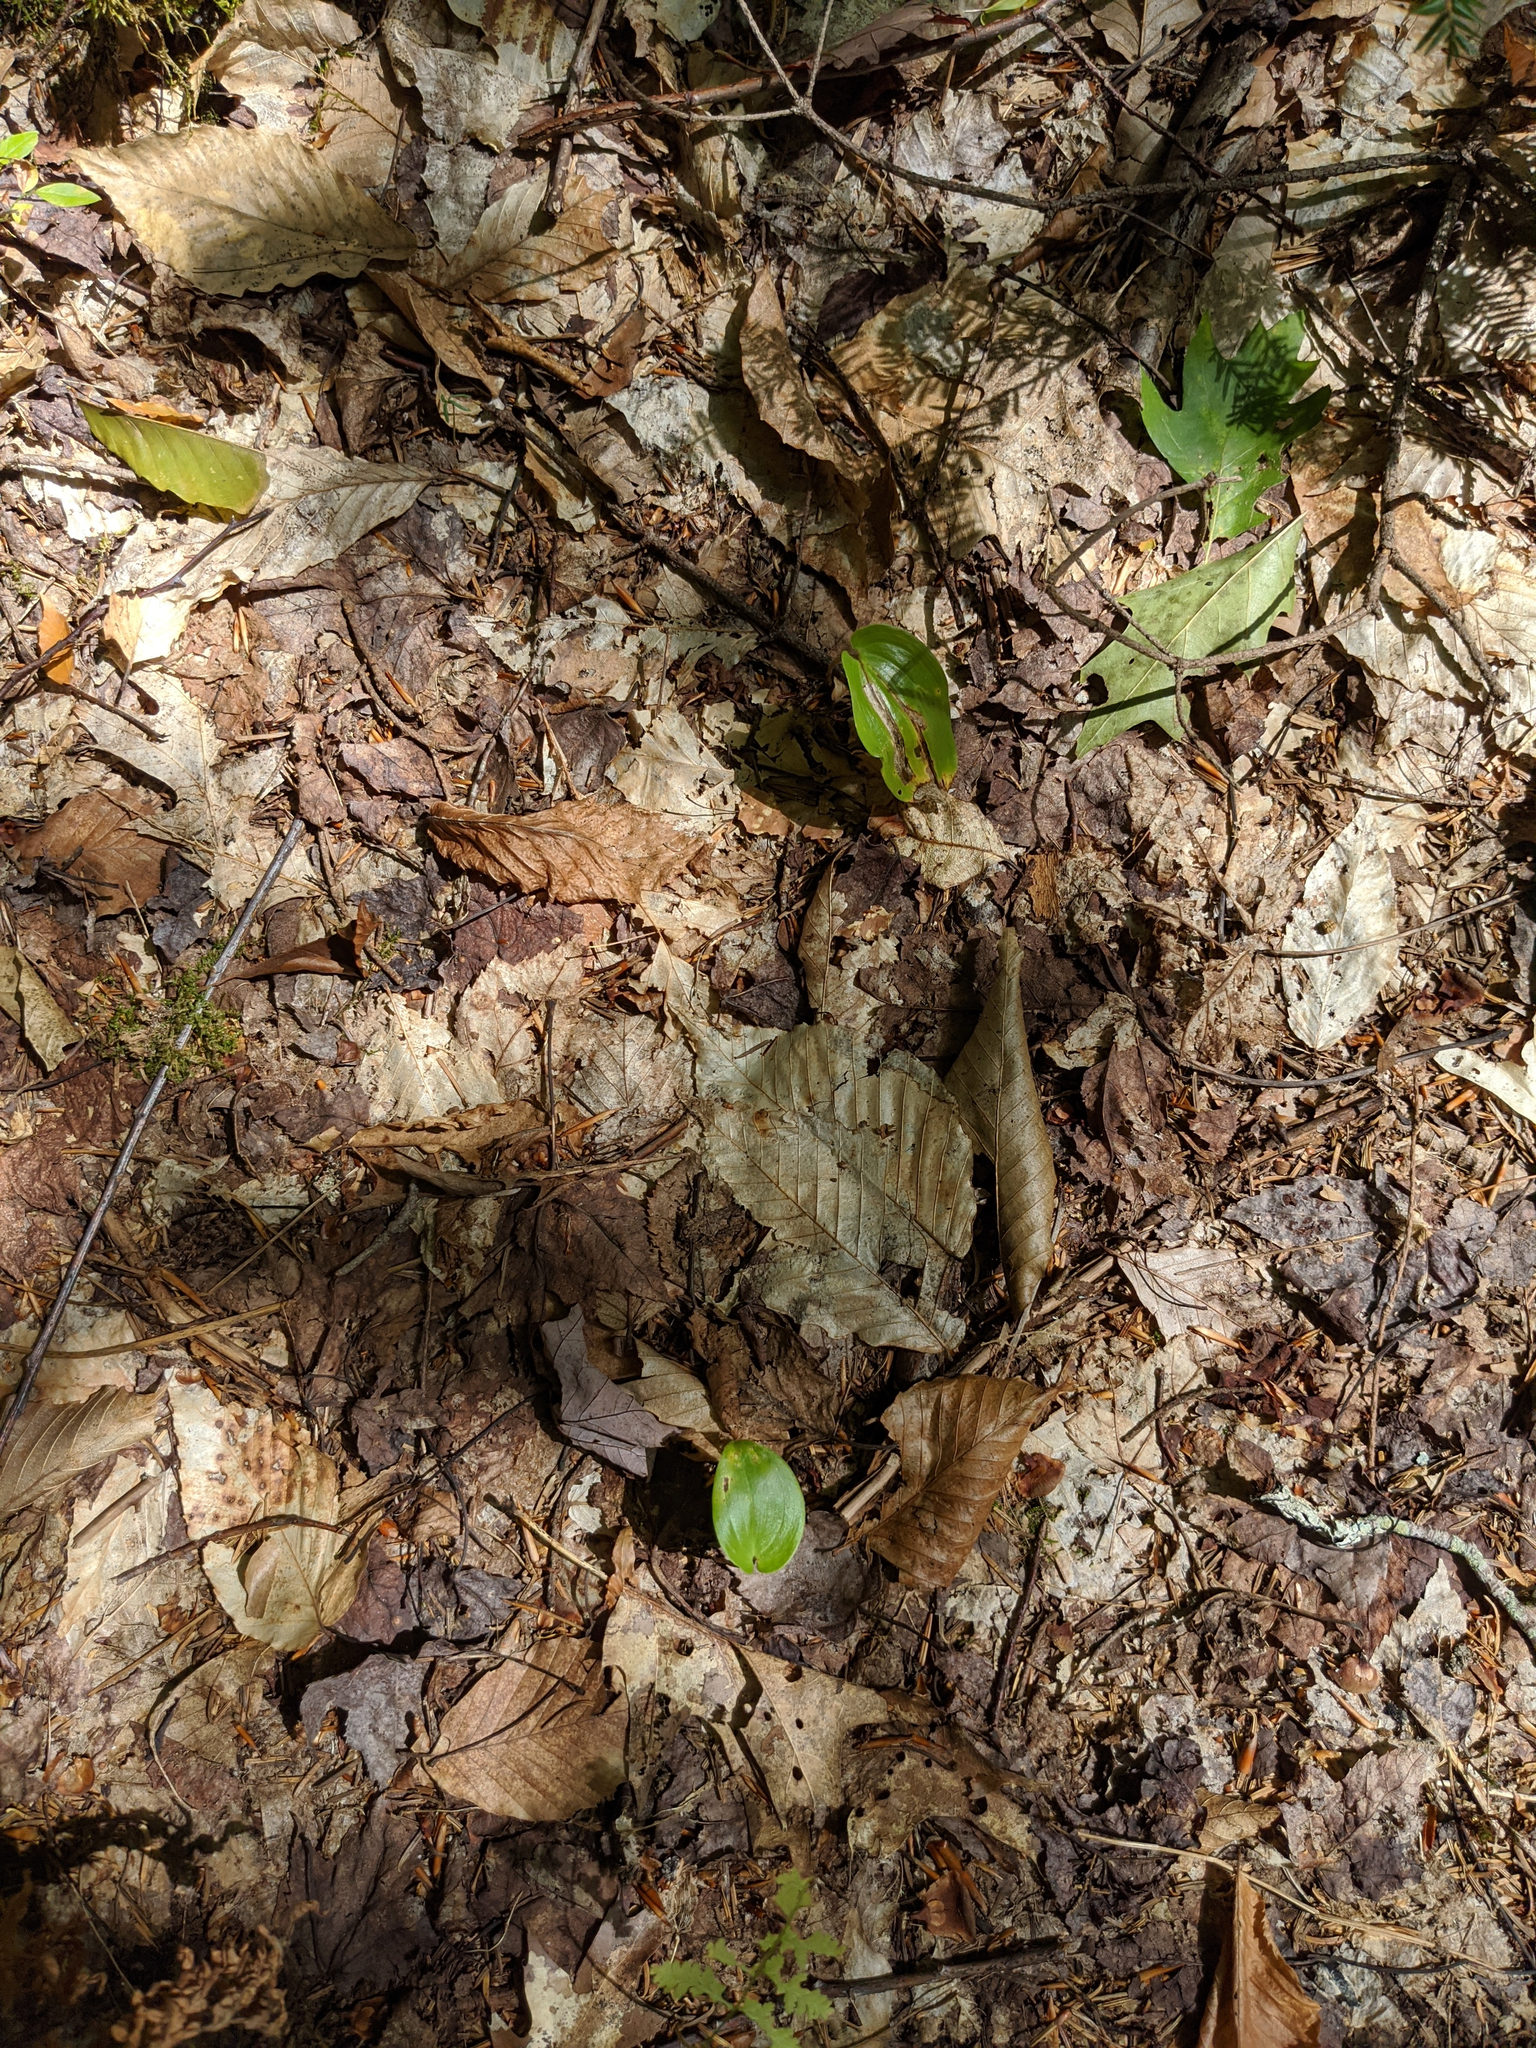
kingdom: Plantae
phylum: Tracheophyta
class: Liliopsida
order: Asparagales
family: Asparagaceae
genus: Maianthemum
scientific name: Maianthemum canadense
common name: False lily-of-the-valley
